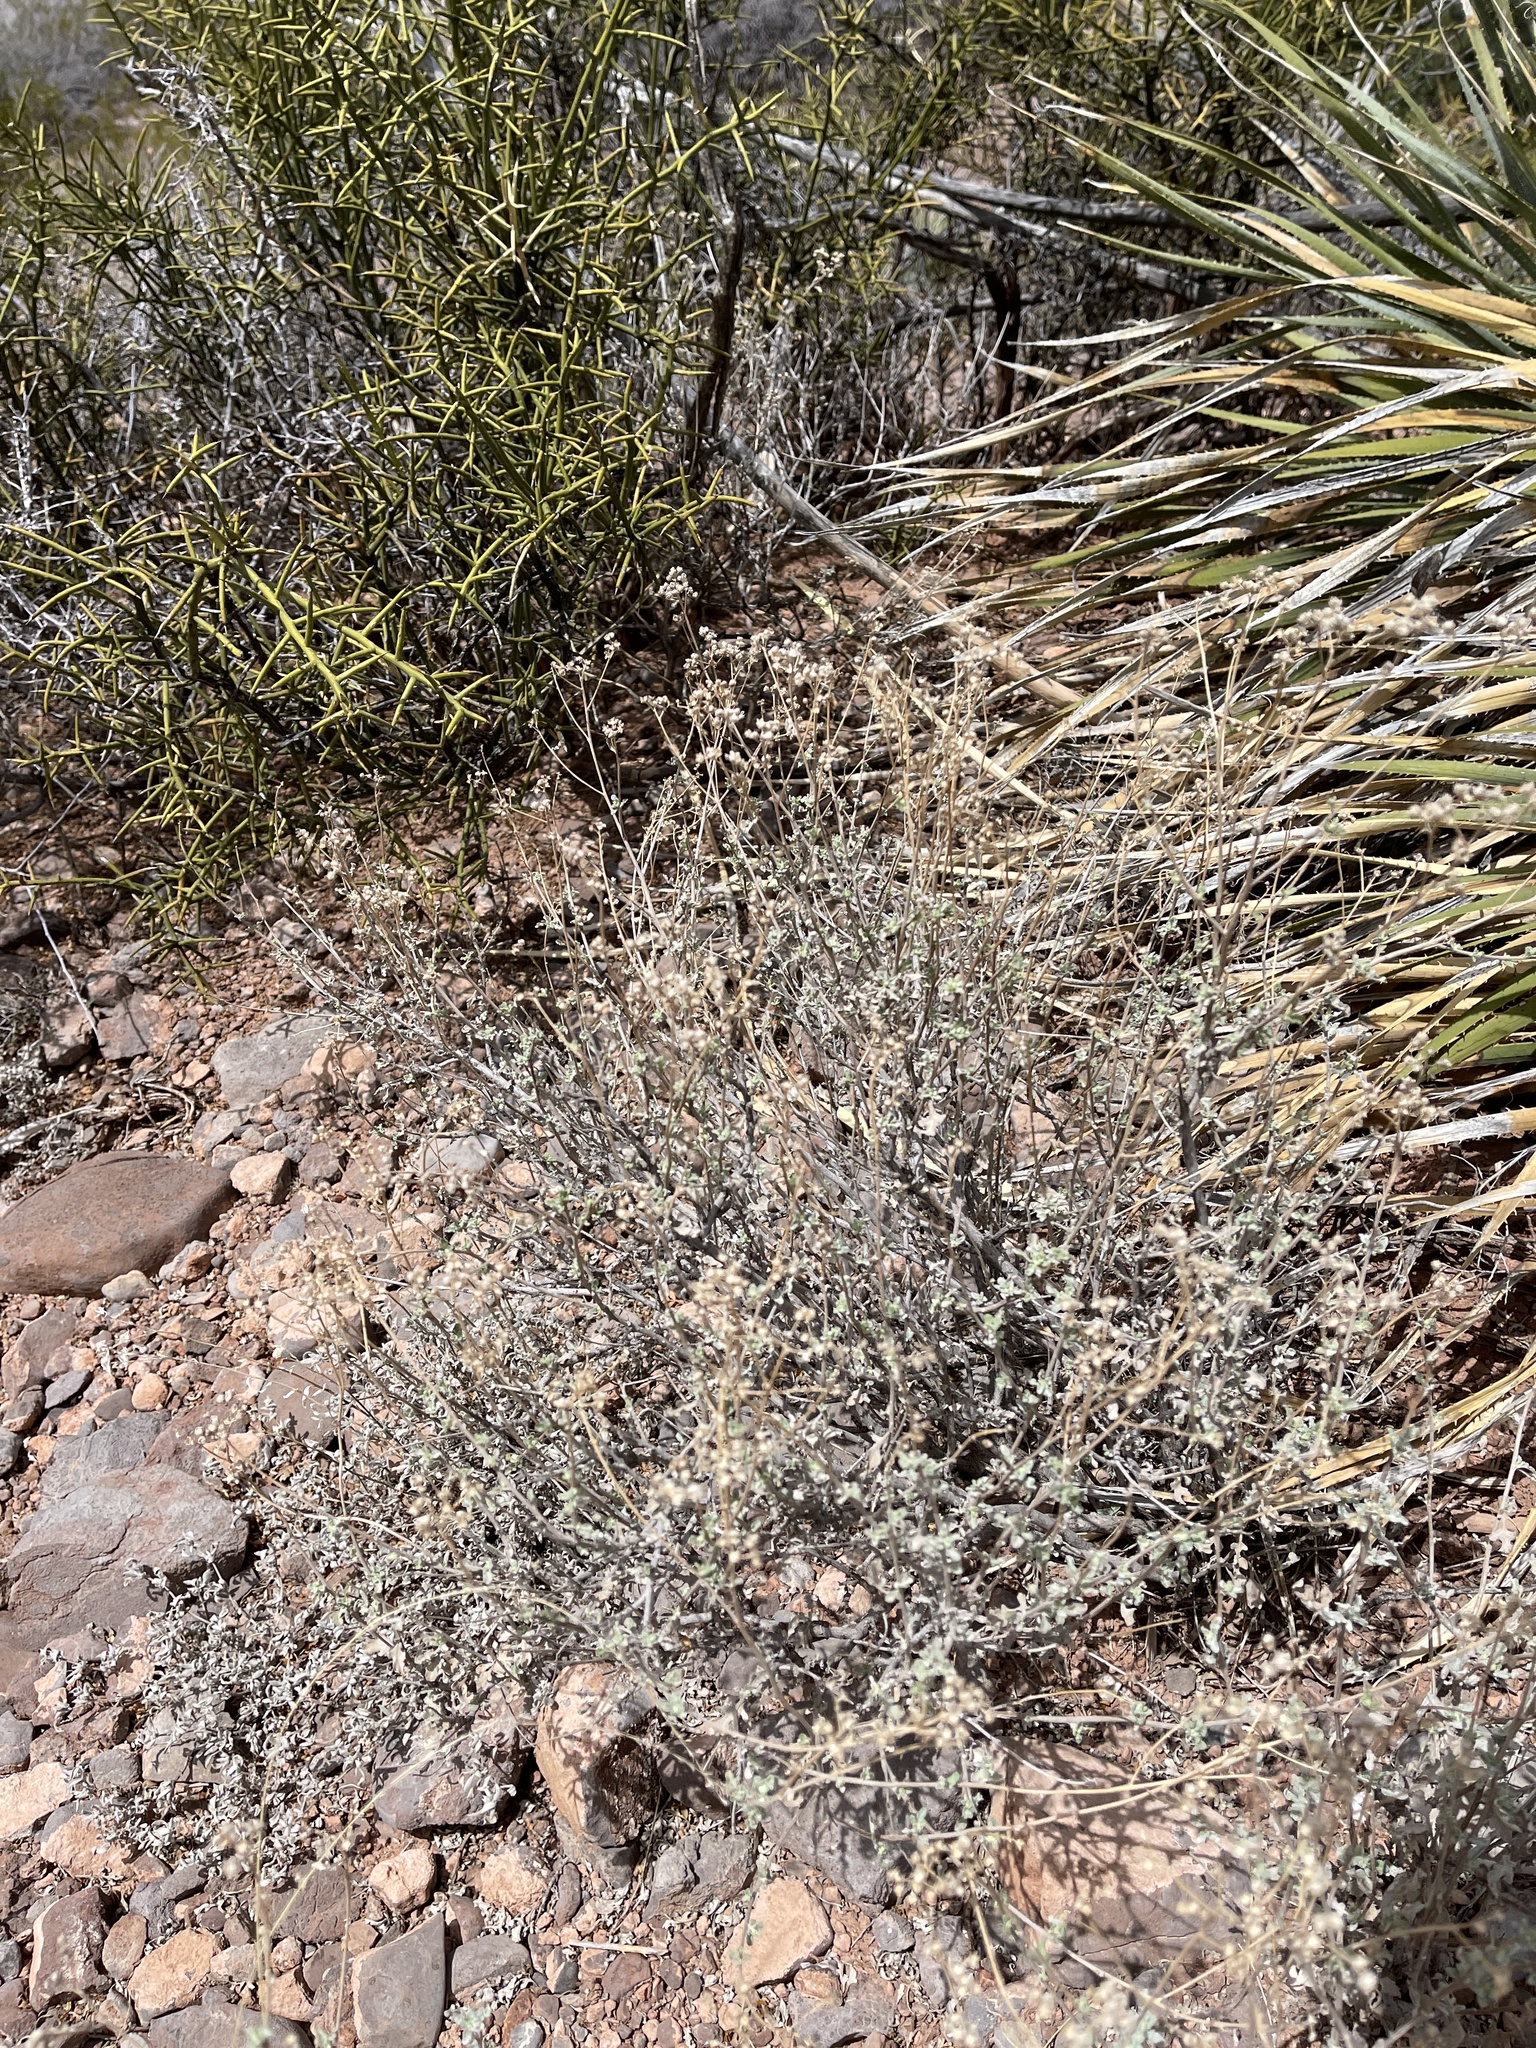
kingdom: Plantae
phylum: Tracheophyta
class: Magnoliopsida
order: Asterales
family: Asteraceae
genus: Parthenium
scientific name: Parthenium incanum
